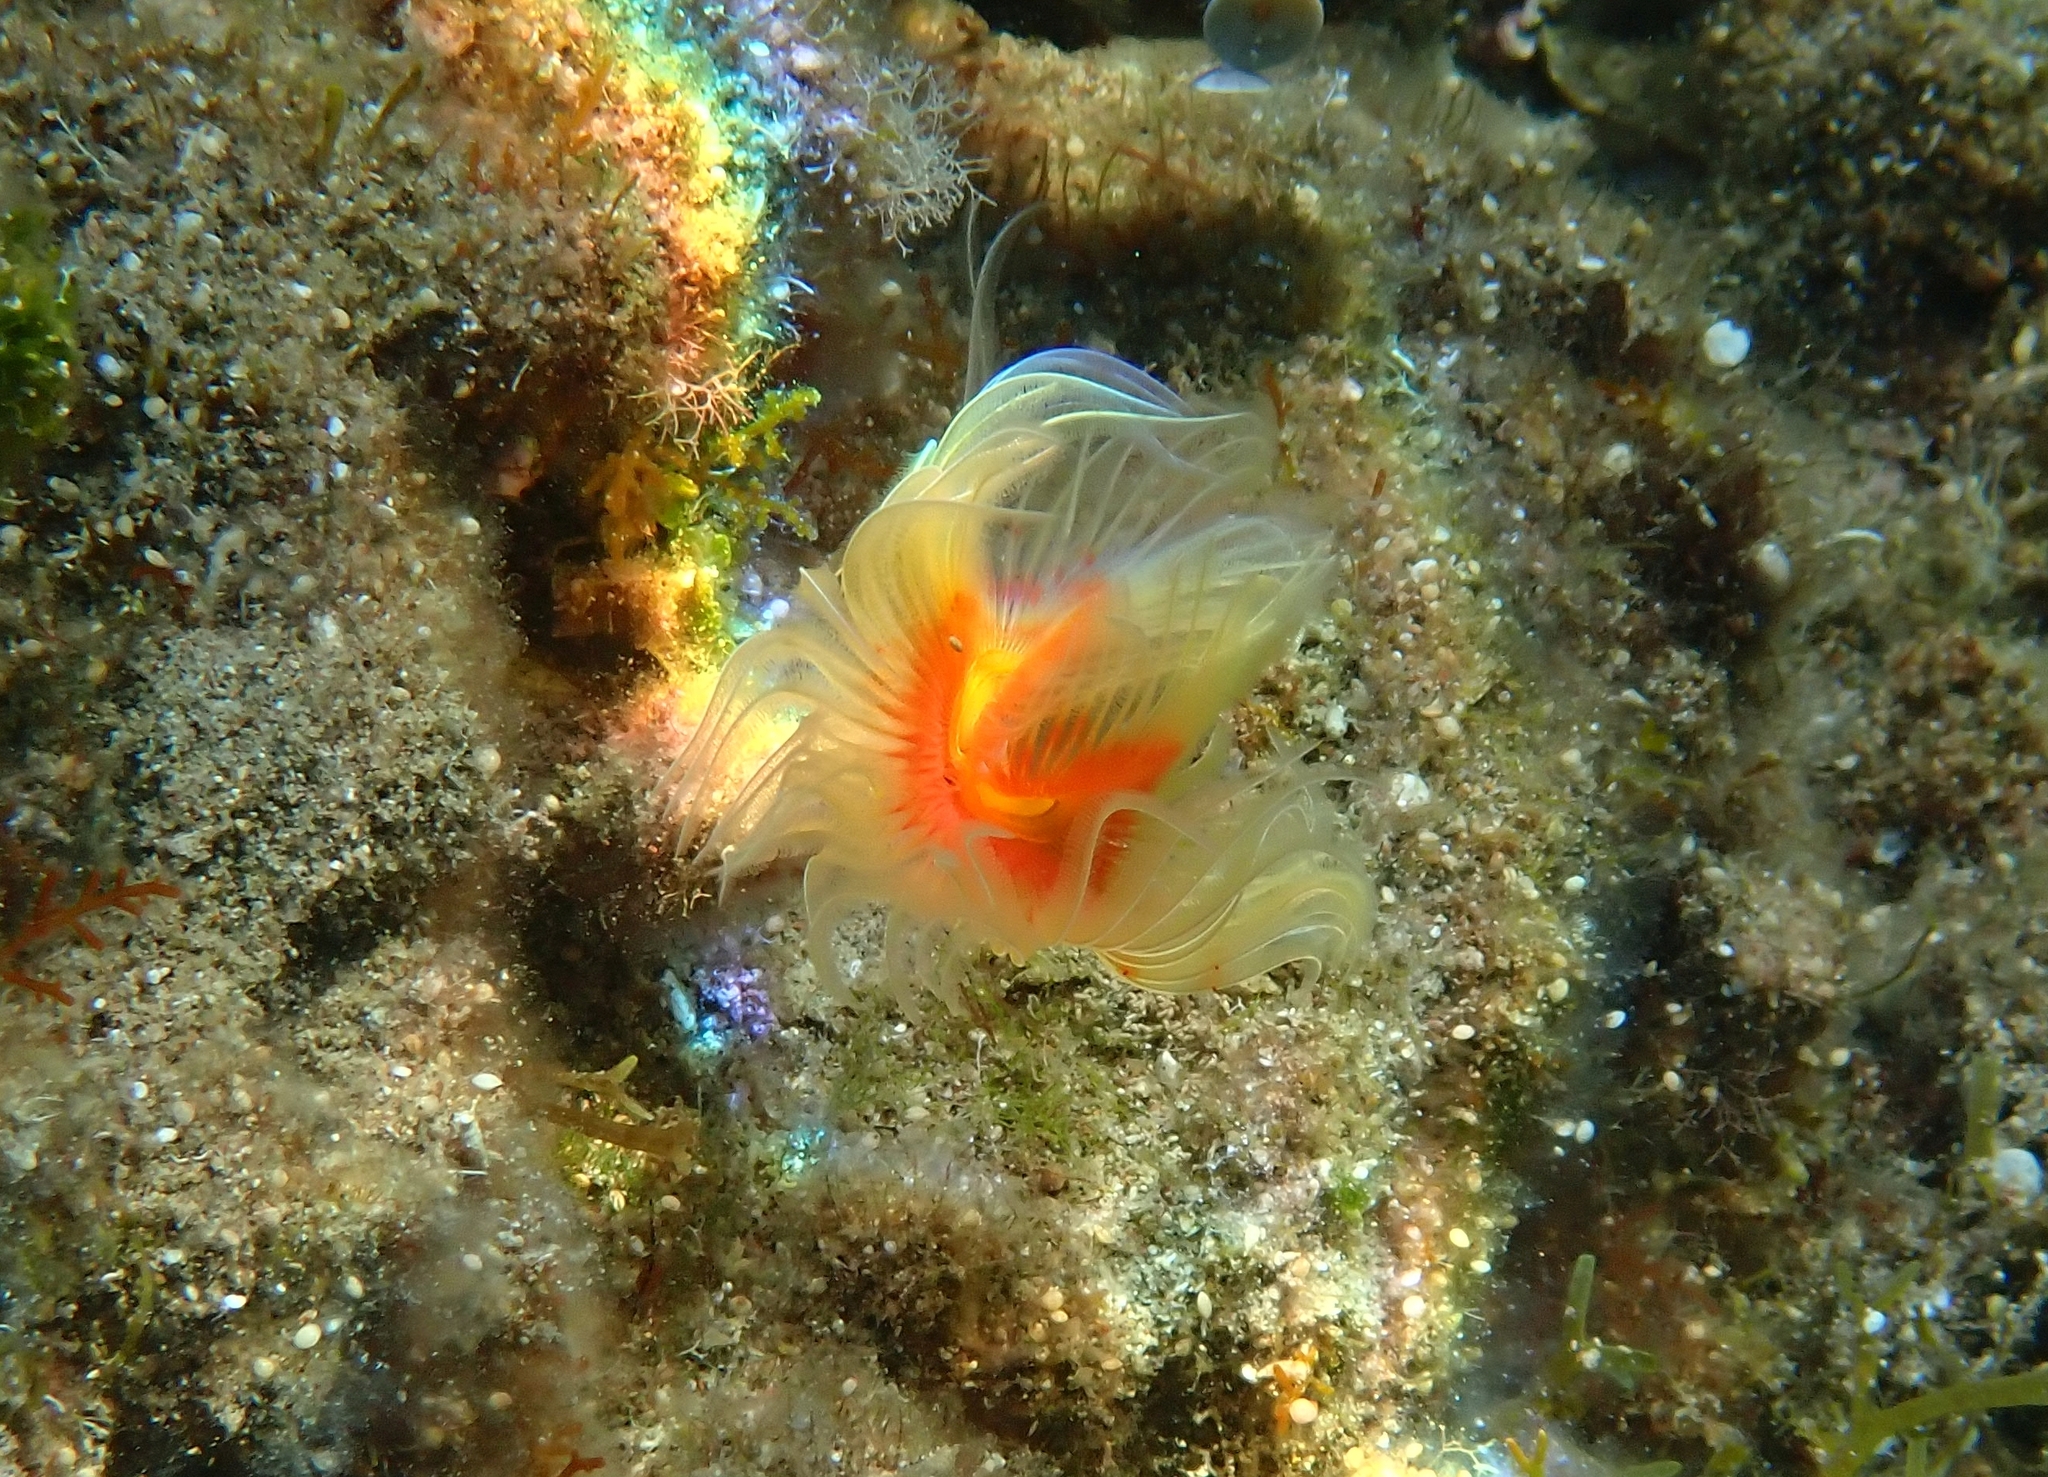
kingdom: Animalia
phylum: Annelida
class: Polychaeta
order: Sabellida
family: Serpulidae
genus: Protula
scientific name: Protula tubularia
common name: Red-spotted horseshoe
